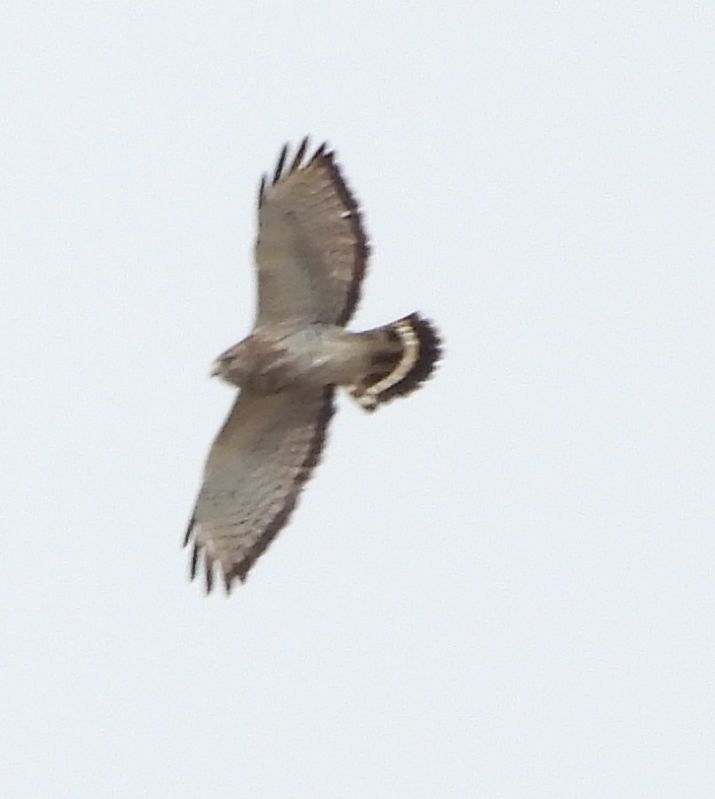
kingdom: Animalia
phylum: Chordata
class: Aves
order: Accipitriformes
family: Accipitridae
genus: Buteo
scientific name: Buteo platypterus
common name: Broad-winged hawk
